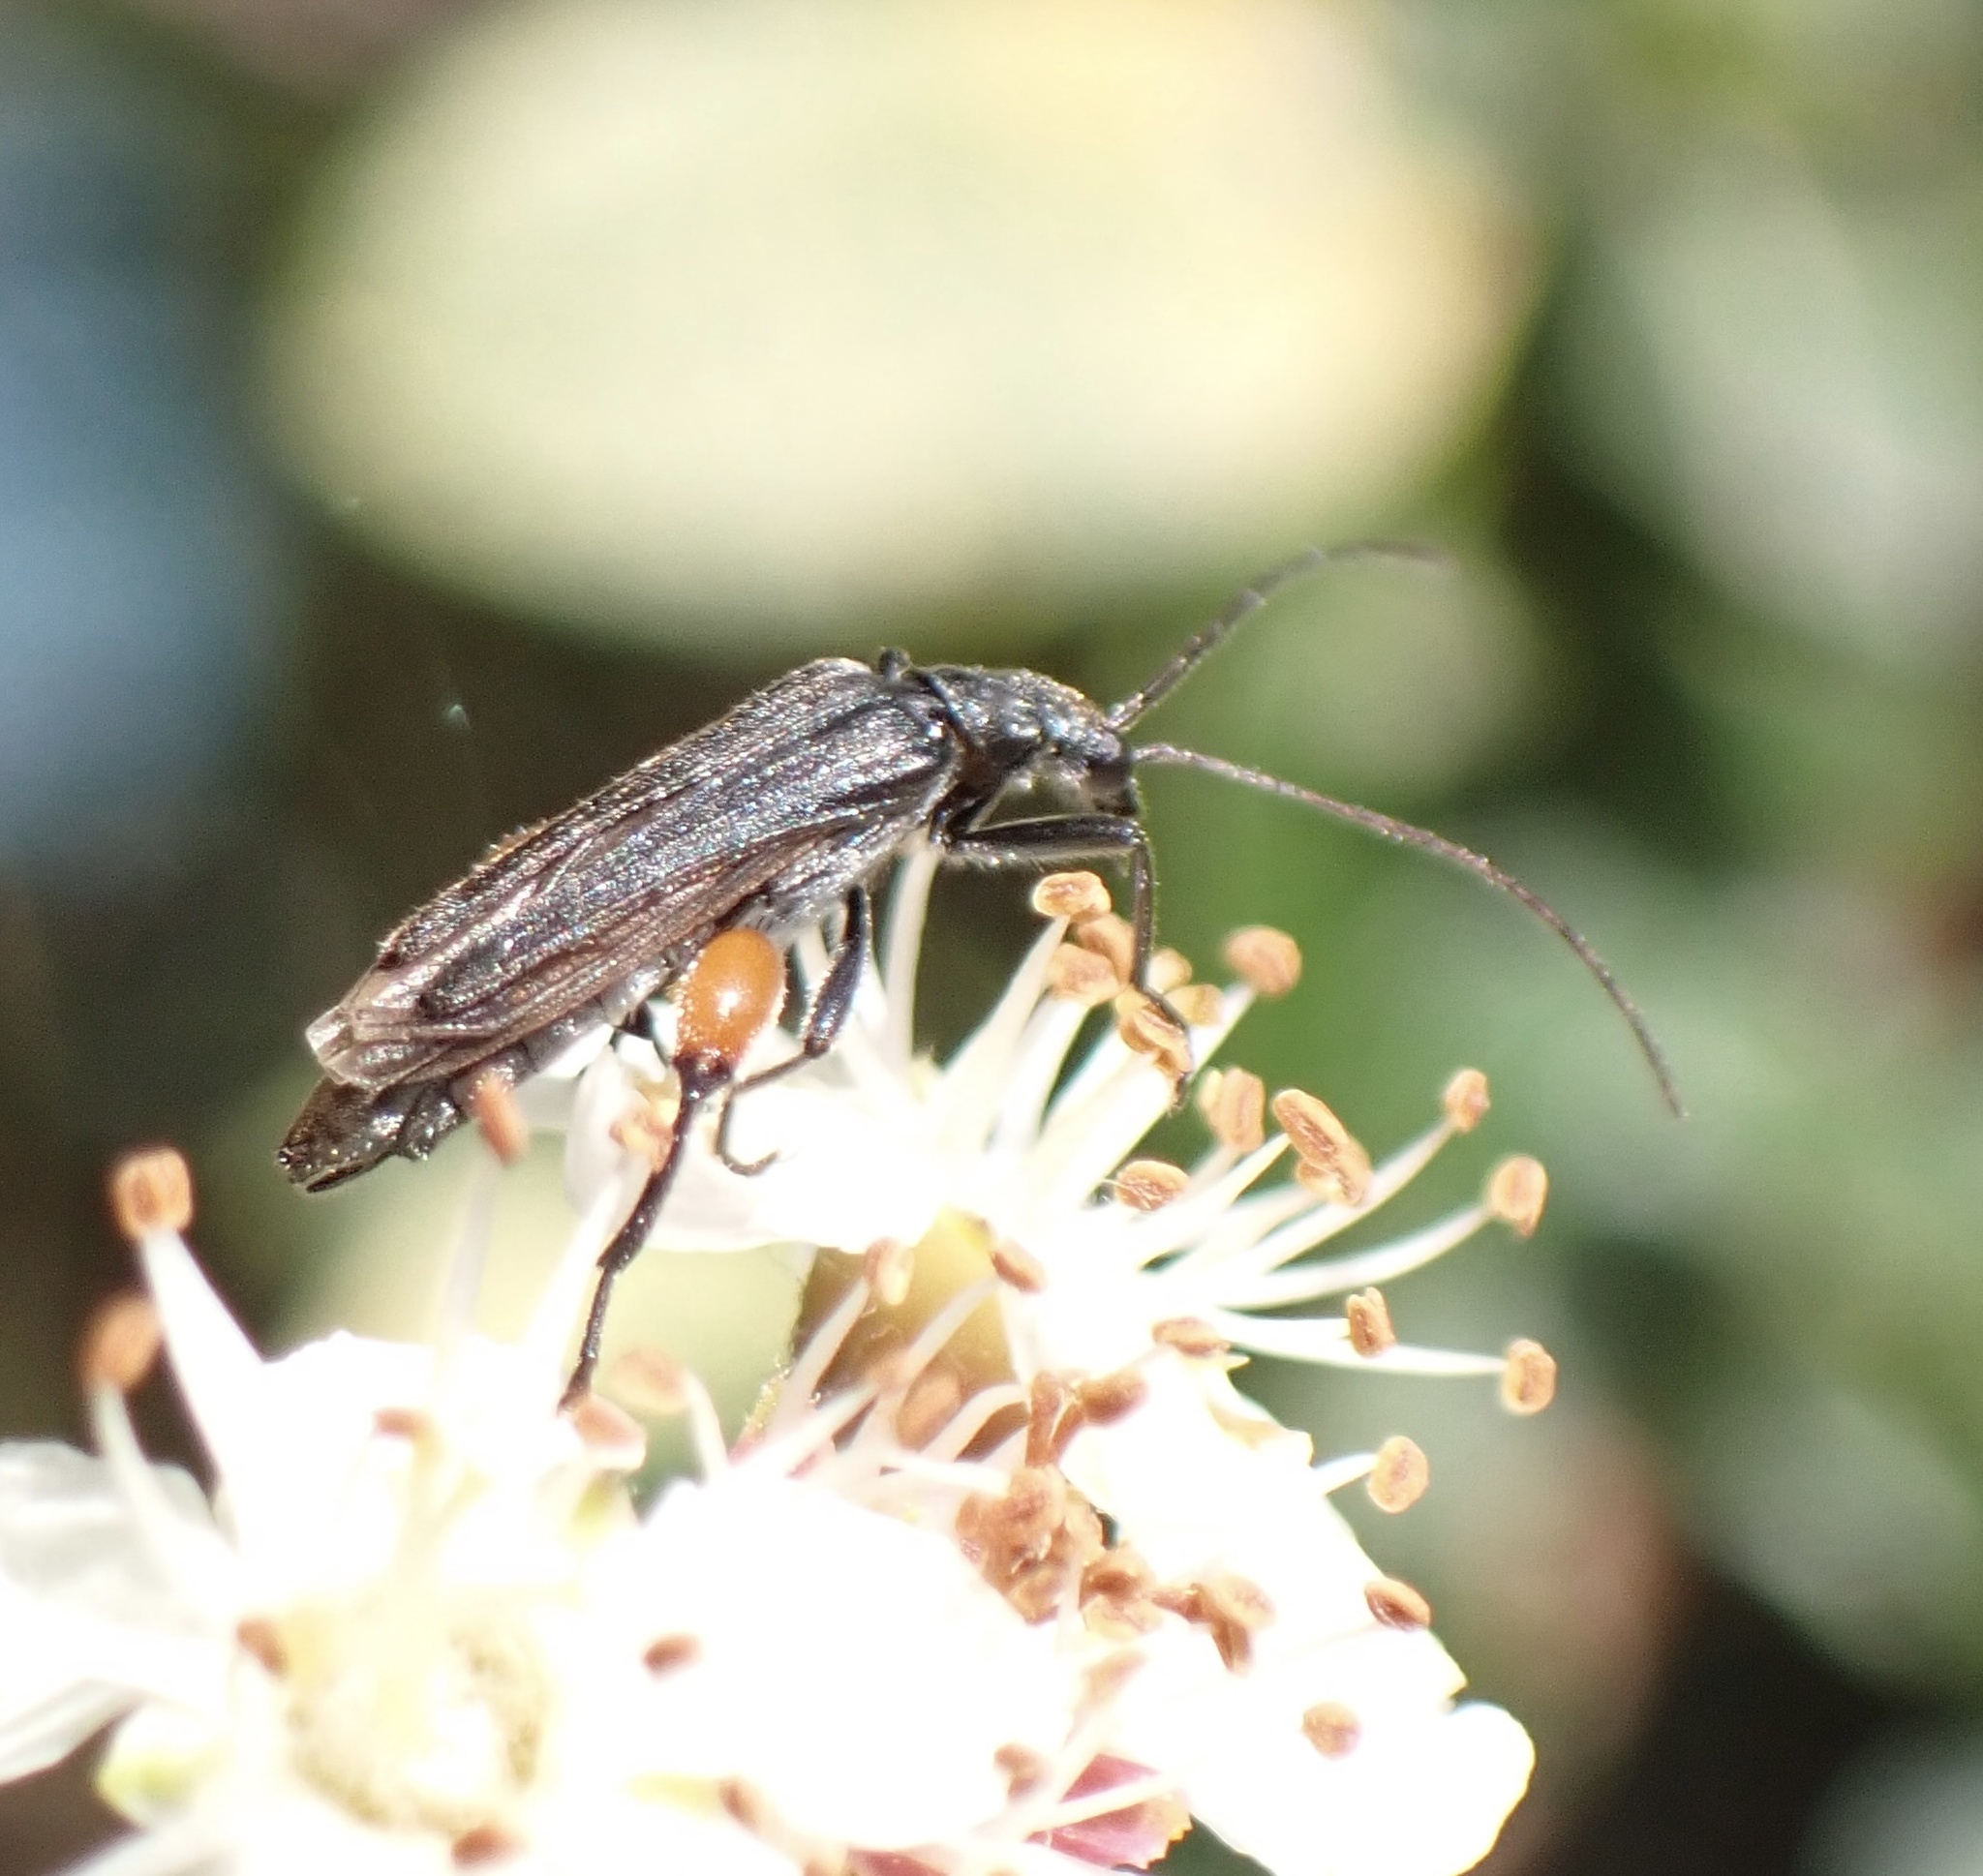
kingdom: Animalia
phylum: Arthropoda
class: Insecta
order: Coleoptera
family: Oedemeridae
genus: Oedemera
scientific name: Oedemera rufofemorata
